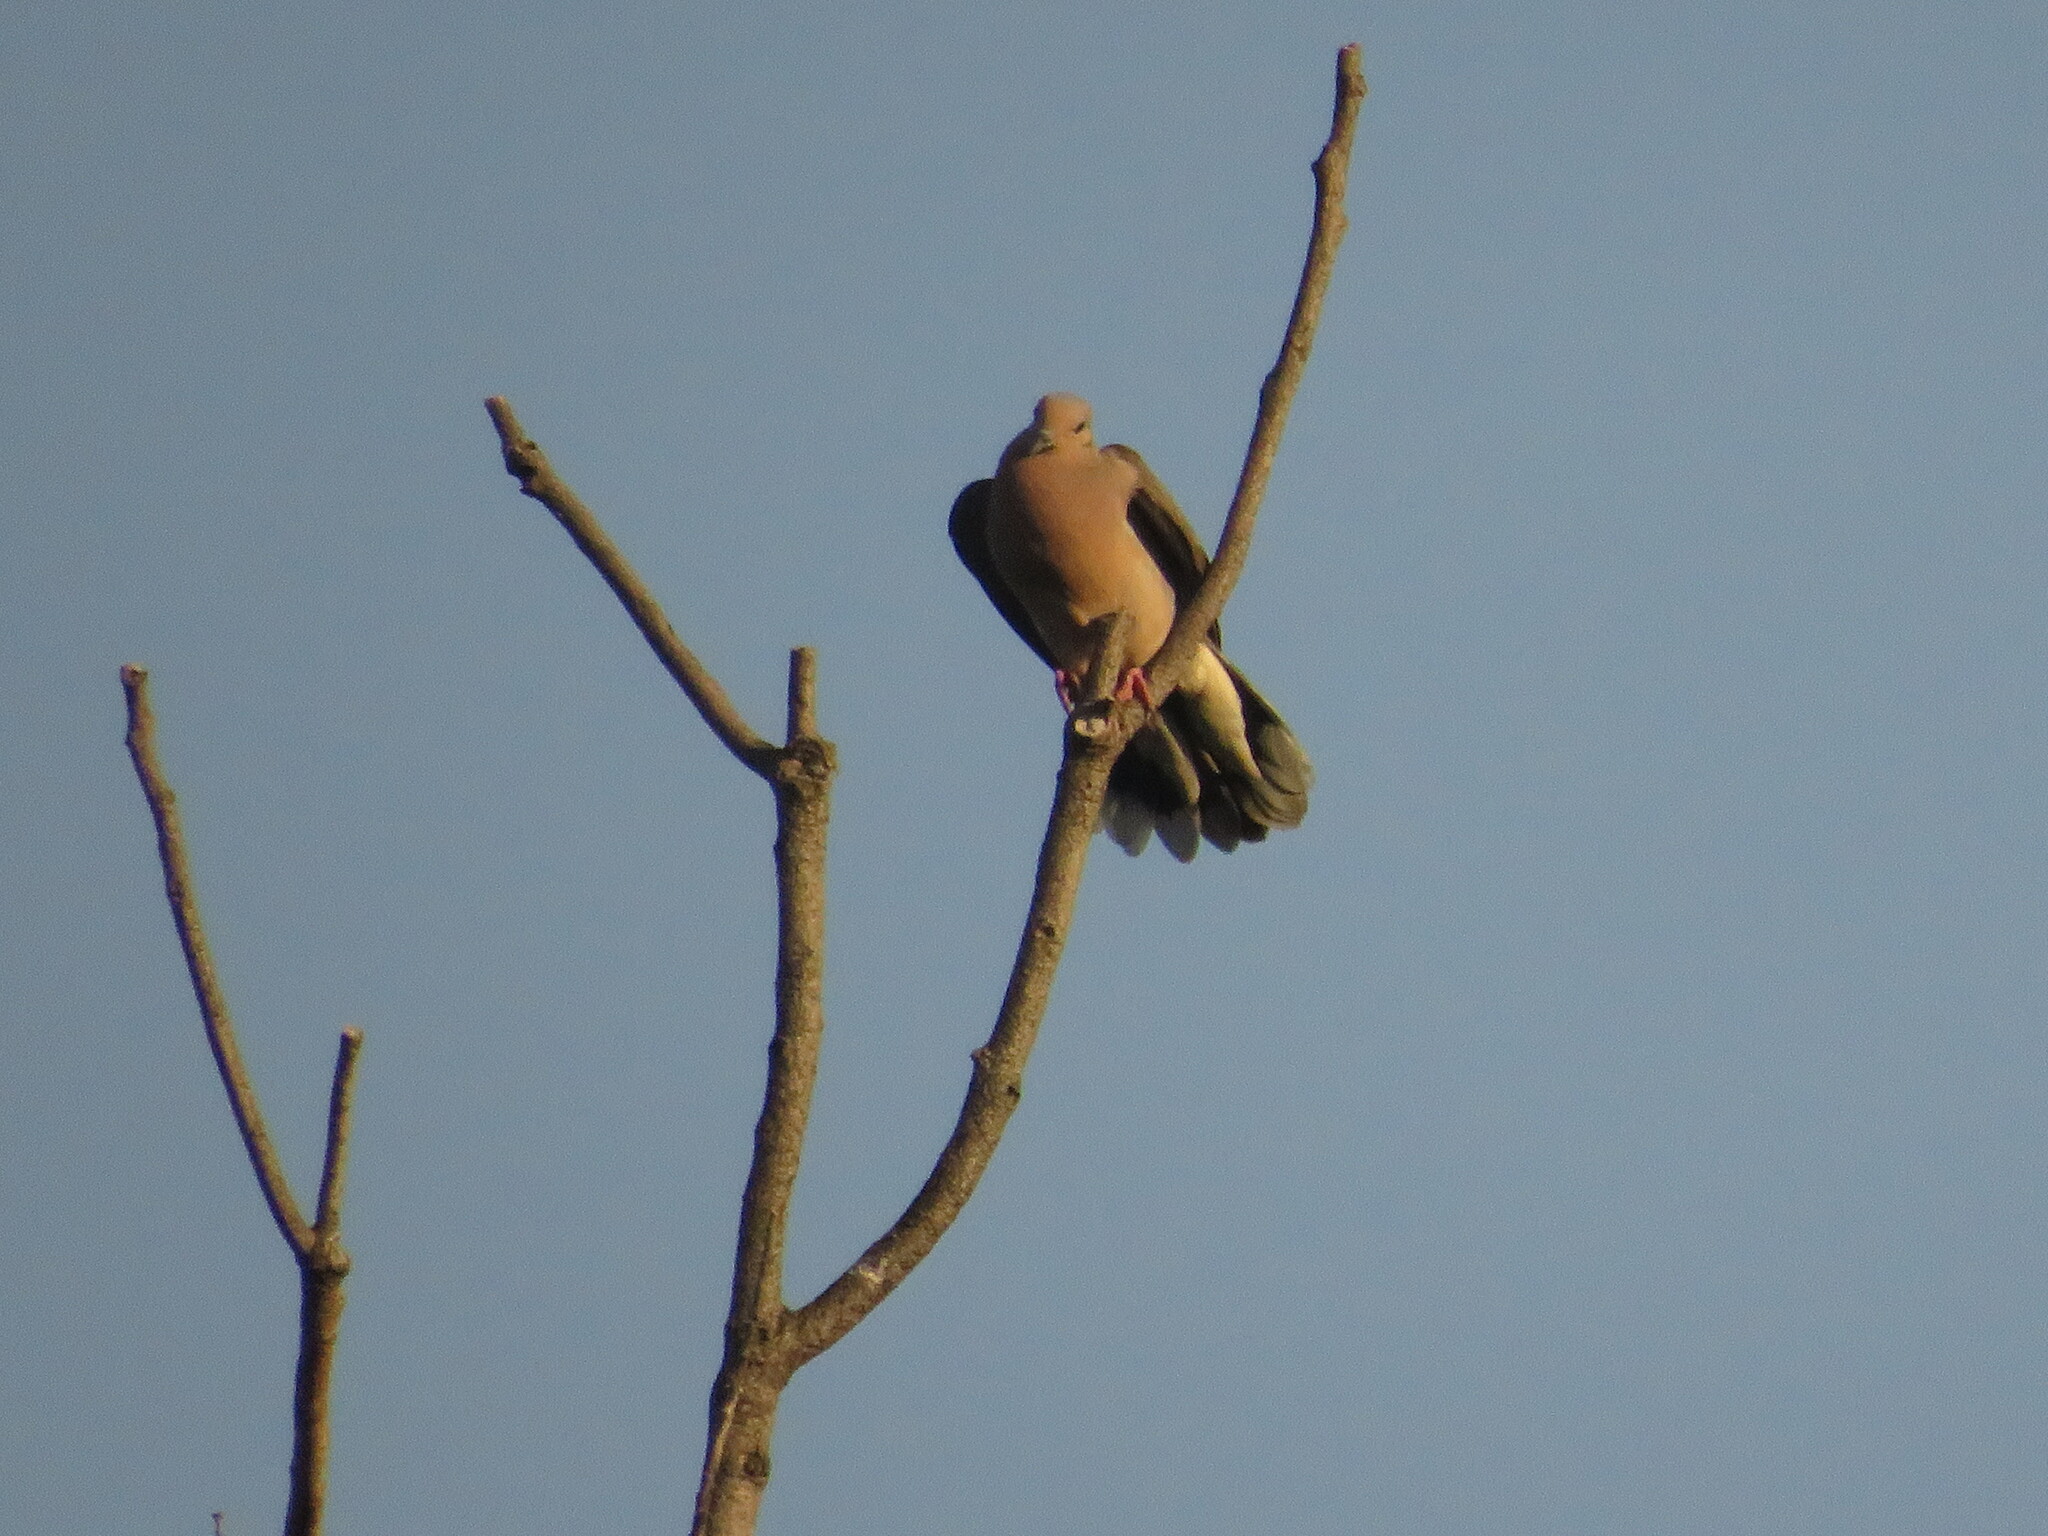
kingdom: Animalia
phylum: Chordata
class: Aves
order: Columbiformes
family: Columbidae
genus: Zenaida
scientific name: Zenaida auriculata
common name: Eared dove
